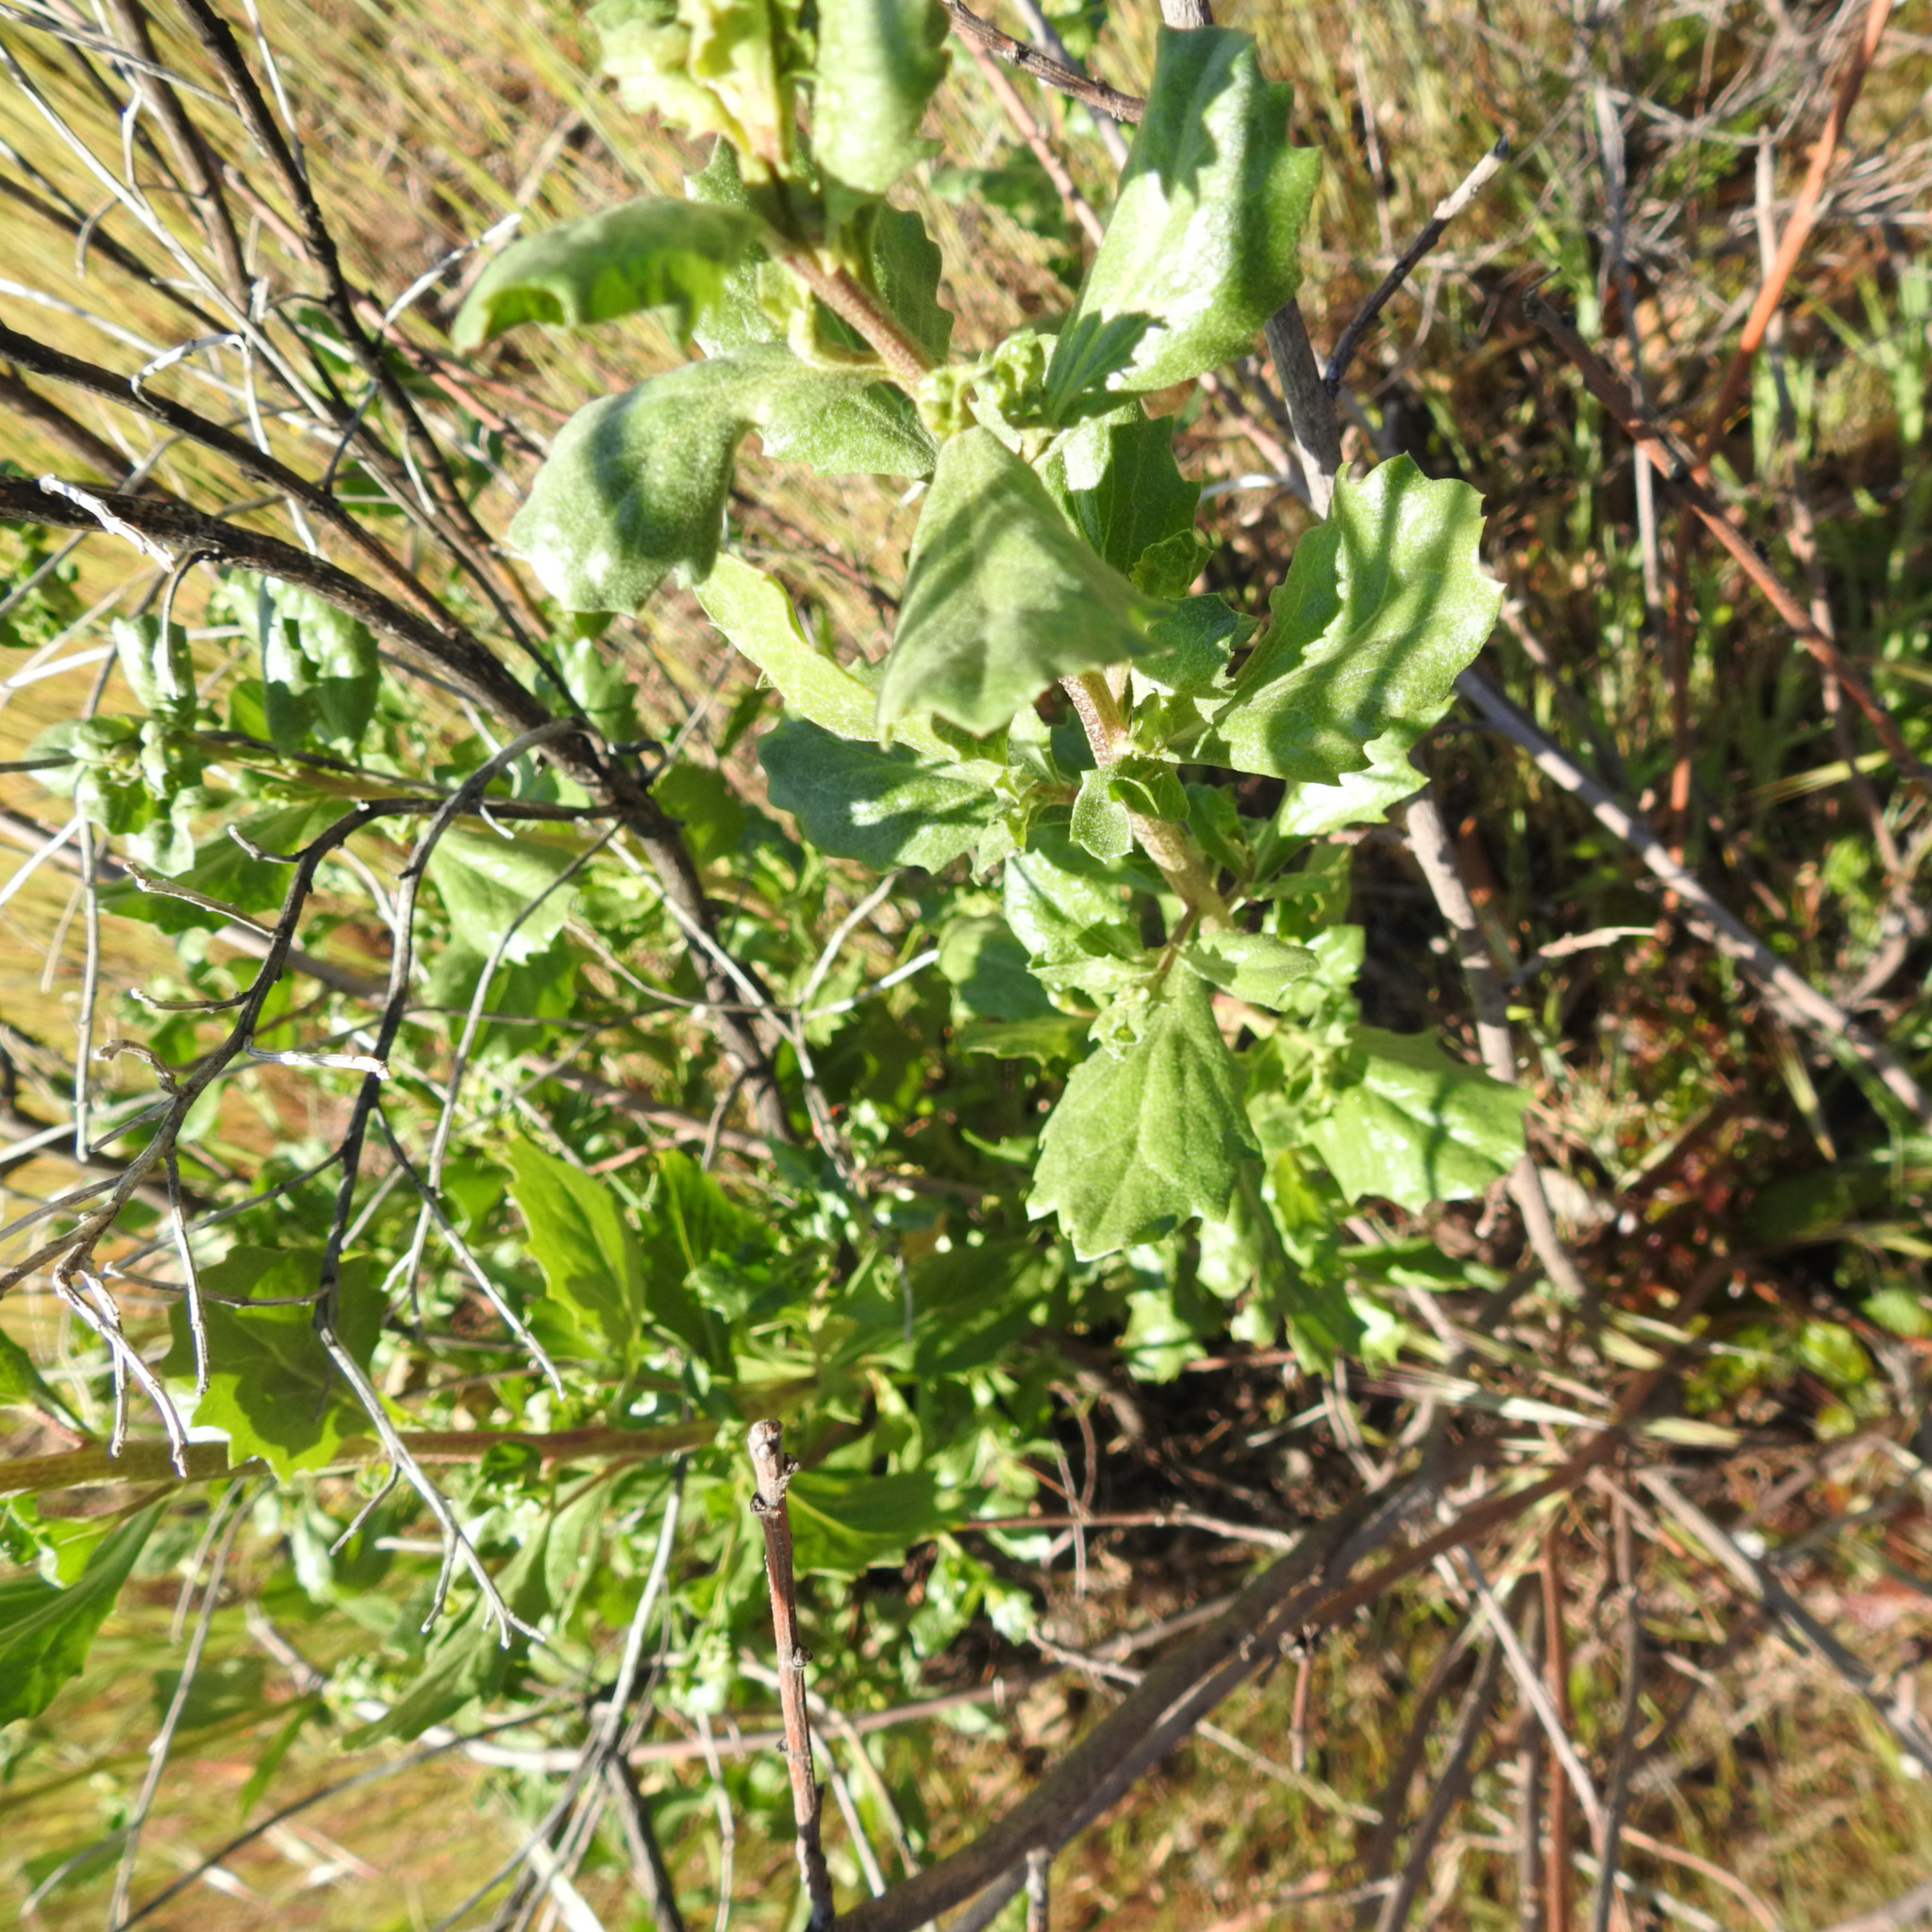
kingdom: Plantae
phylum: Tracheophyta
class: Magnoliopsida
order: Asterales
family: Asteraceae
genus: Baccharis
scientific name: Baccharis pilularis
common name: Coyotebrush
